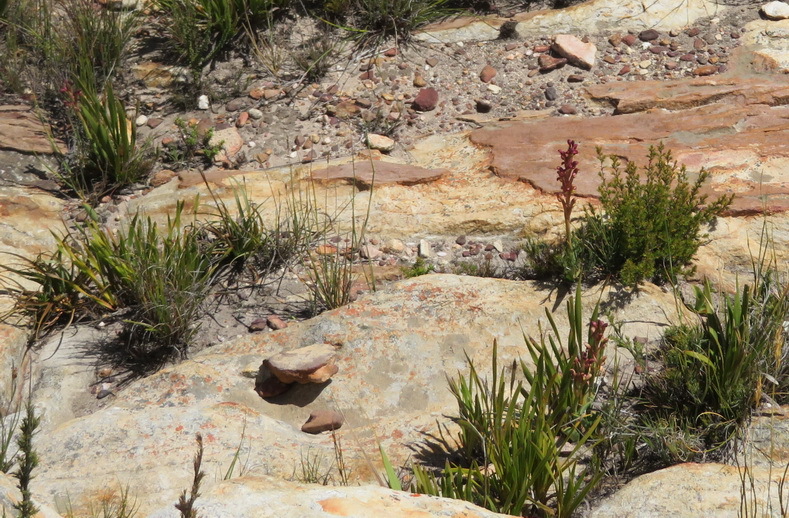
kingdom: Plantae
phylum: Tracheophyta
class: Liliopsida
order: Asparagales
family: Orchidaceae
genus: Disa
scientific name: Disa bolusiana
